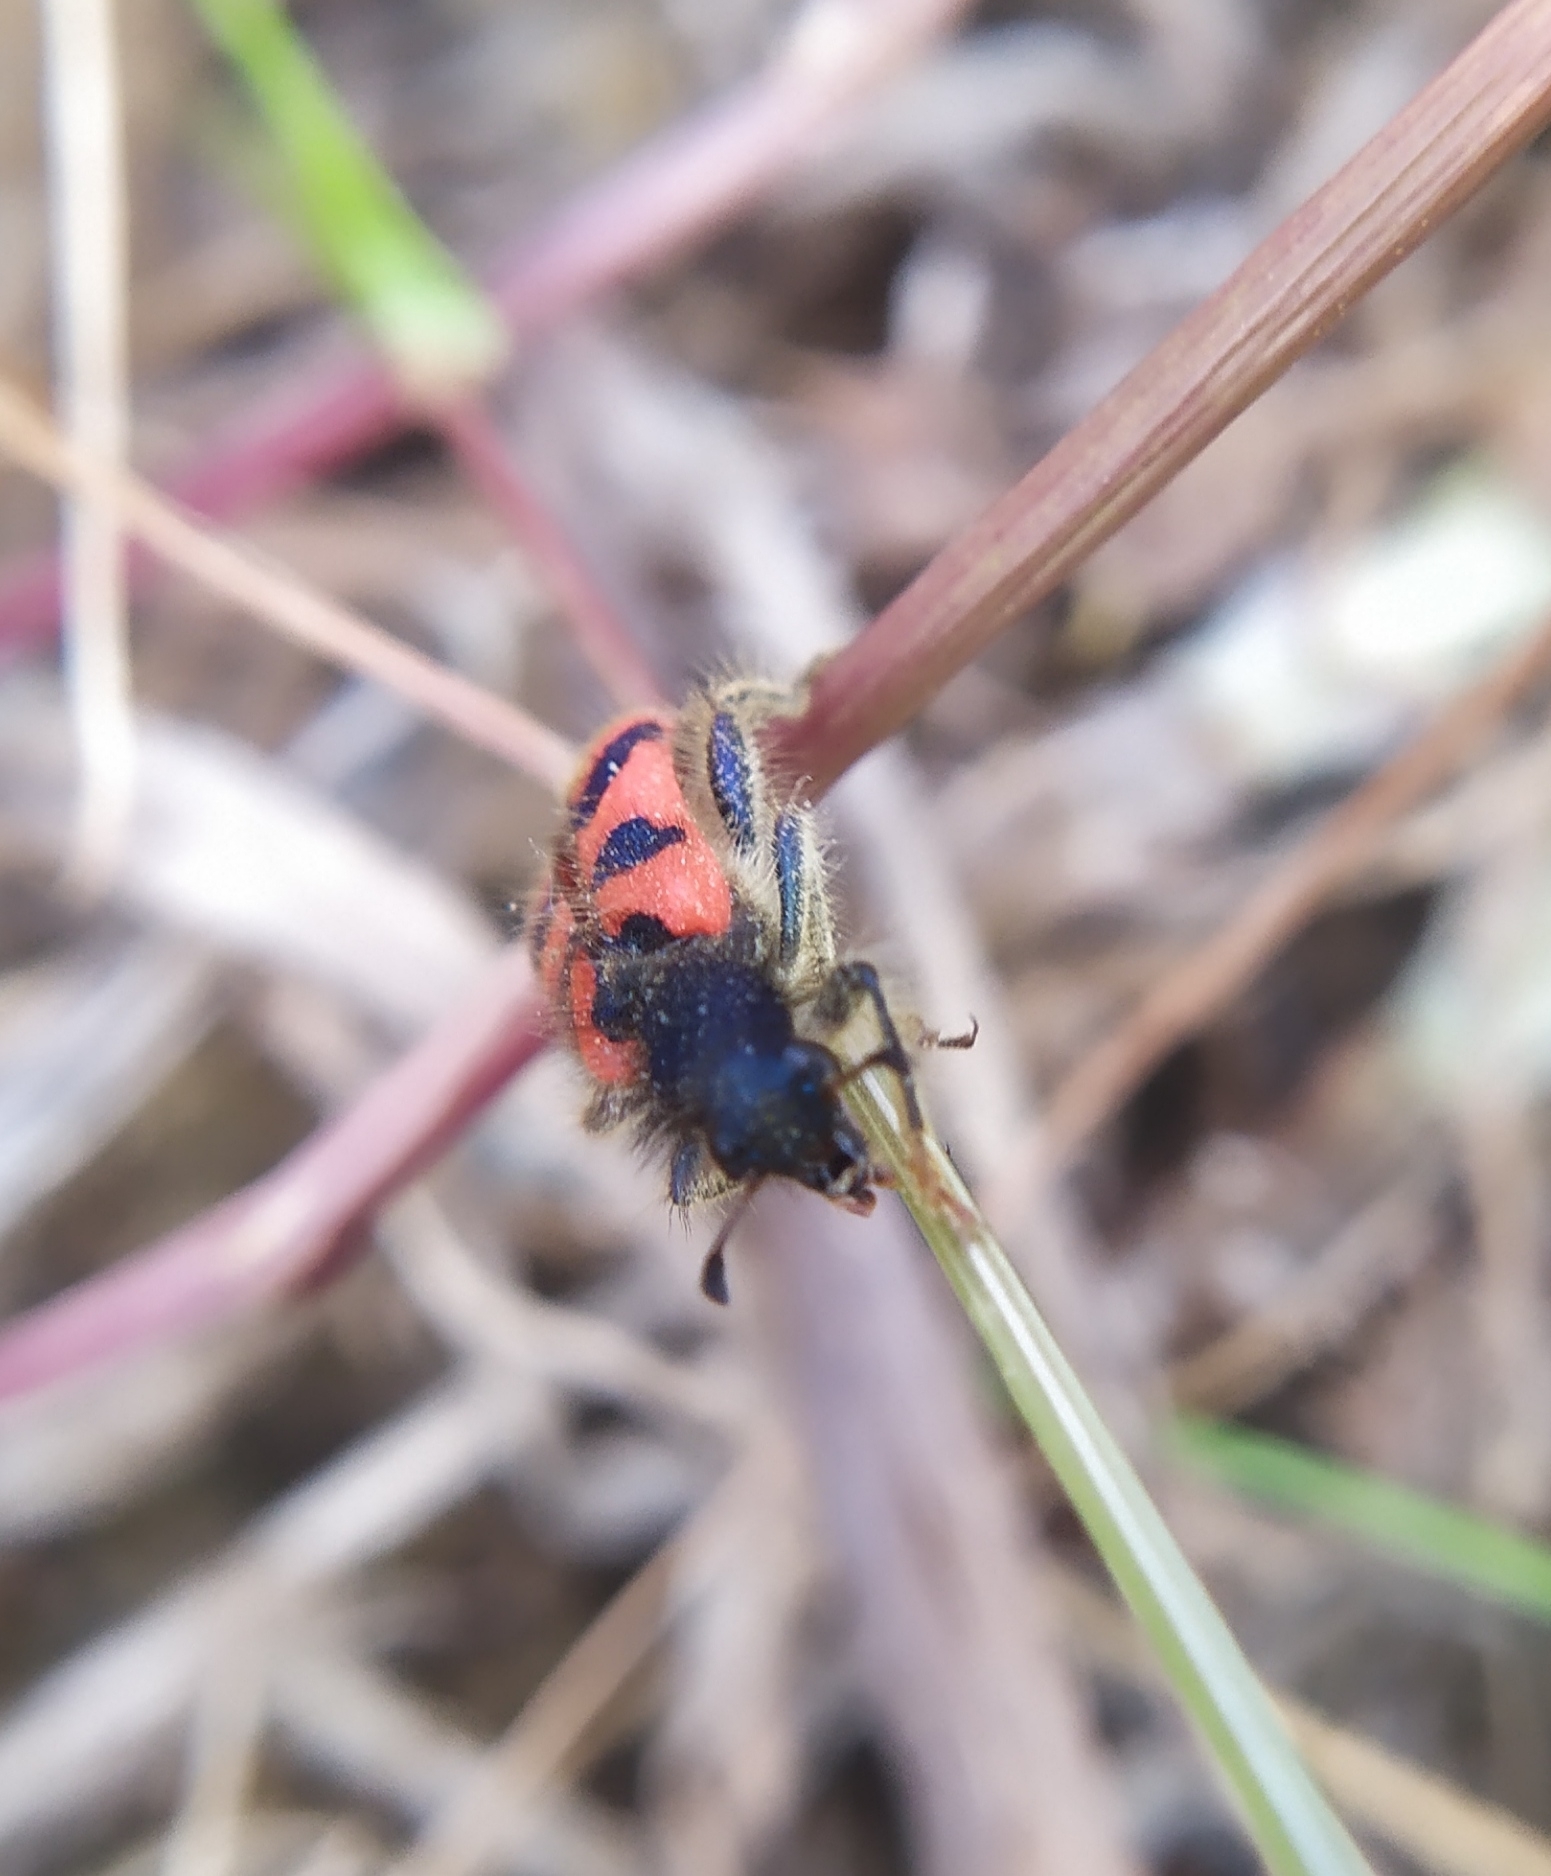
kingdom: Animalia
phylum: Arthropoda
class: Insecta
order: Coleoptera
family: Cleridae
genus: Trichodes
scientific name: Trichodes umbellatarum
